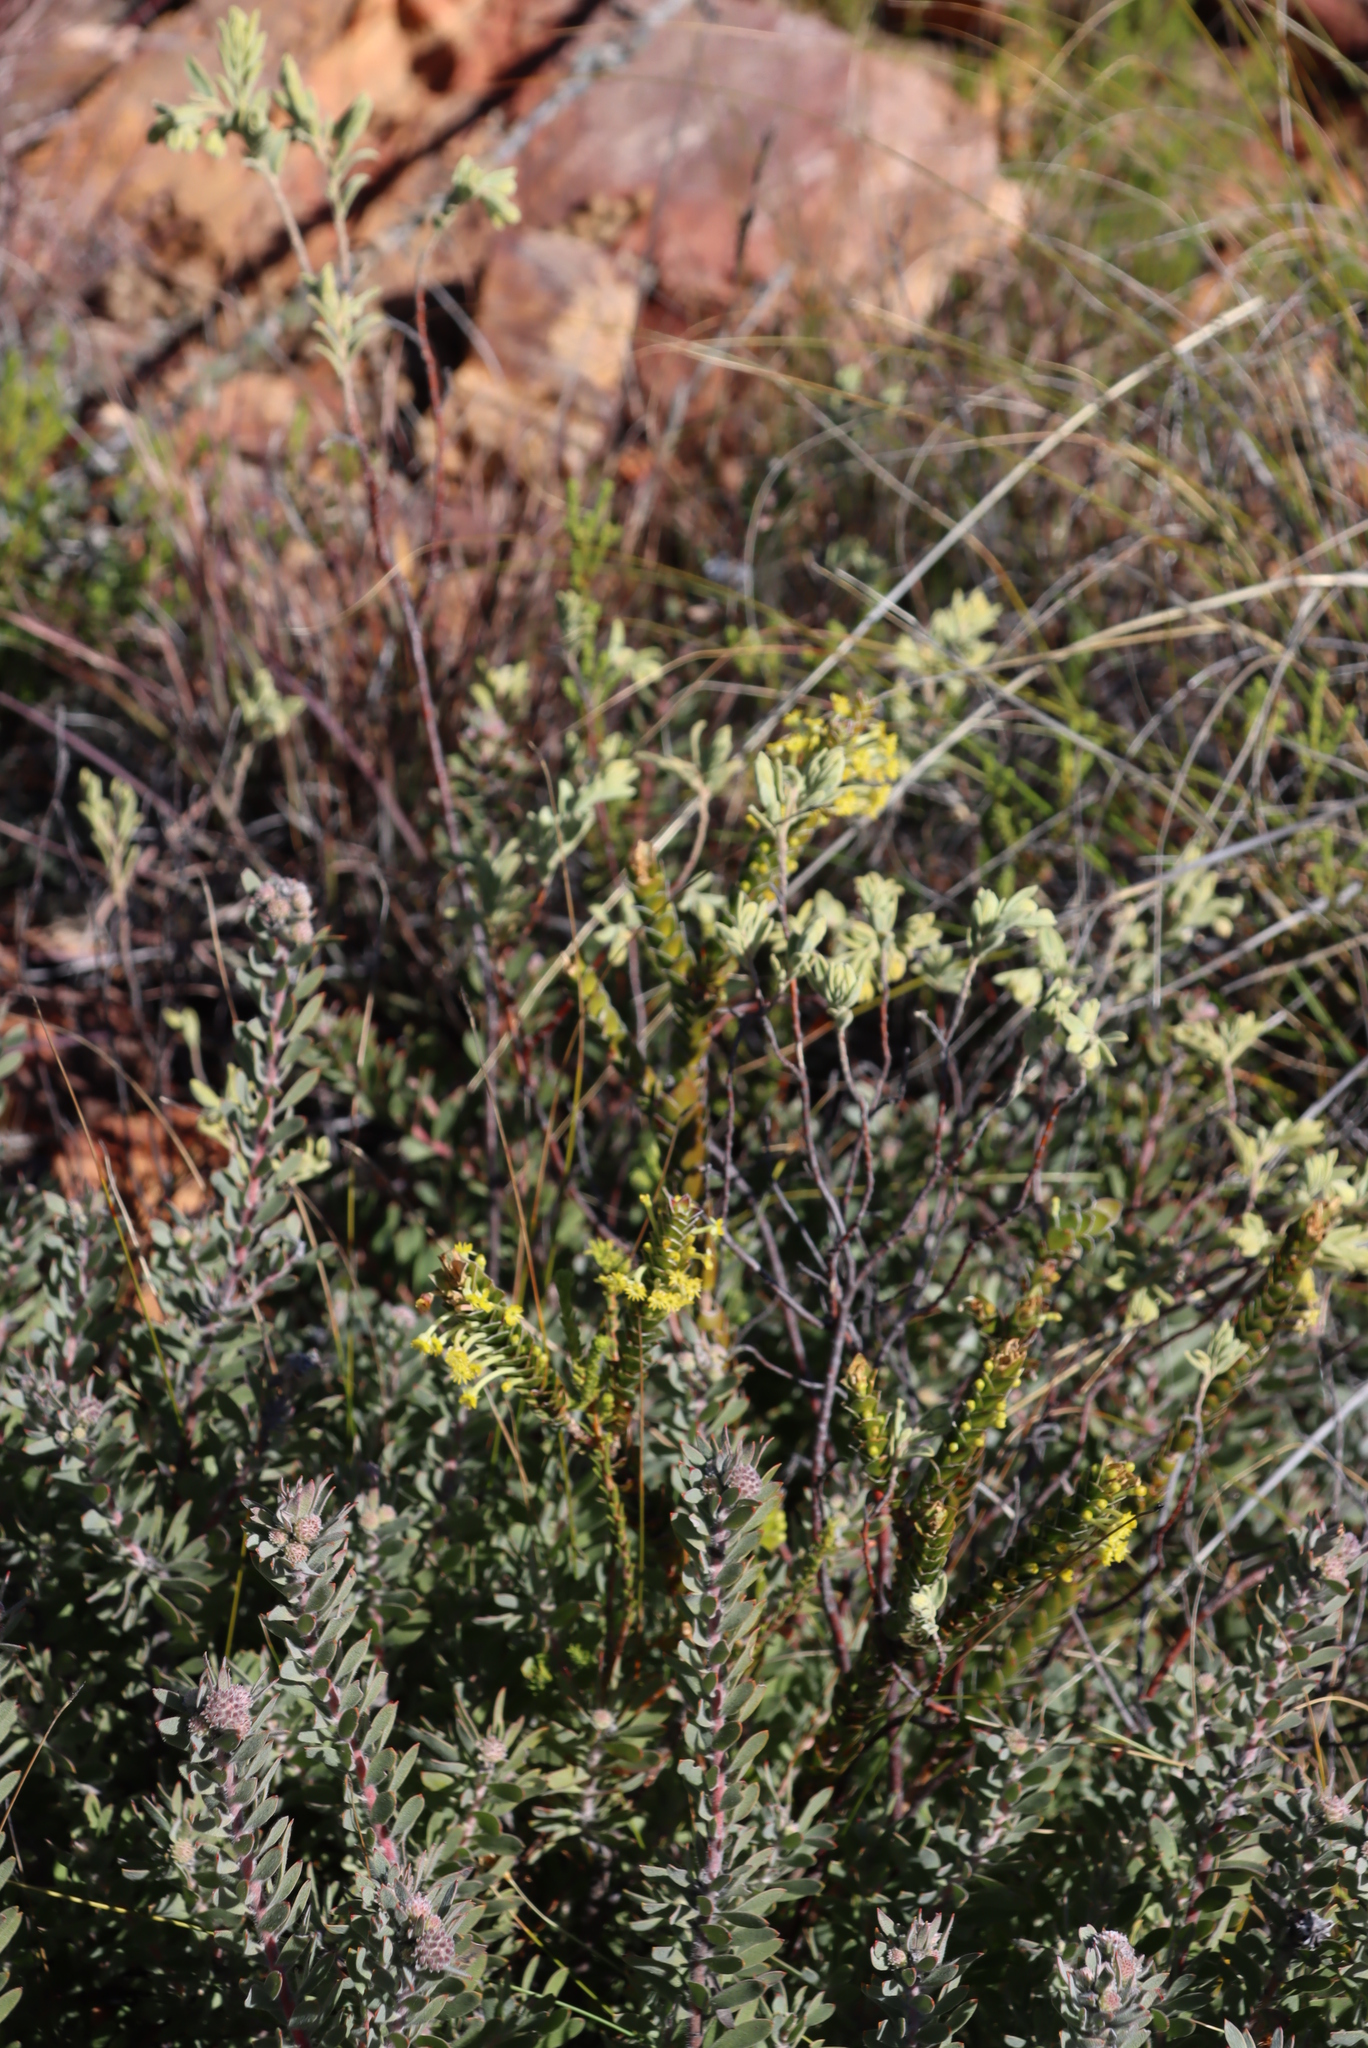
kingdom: Plantae
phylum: Tracheophyta
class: Magnoliopsida
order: Malvales
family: Thymelaeaceae
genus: Struthiola
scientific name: Struthiola argentea
